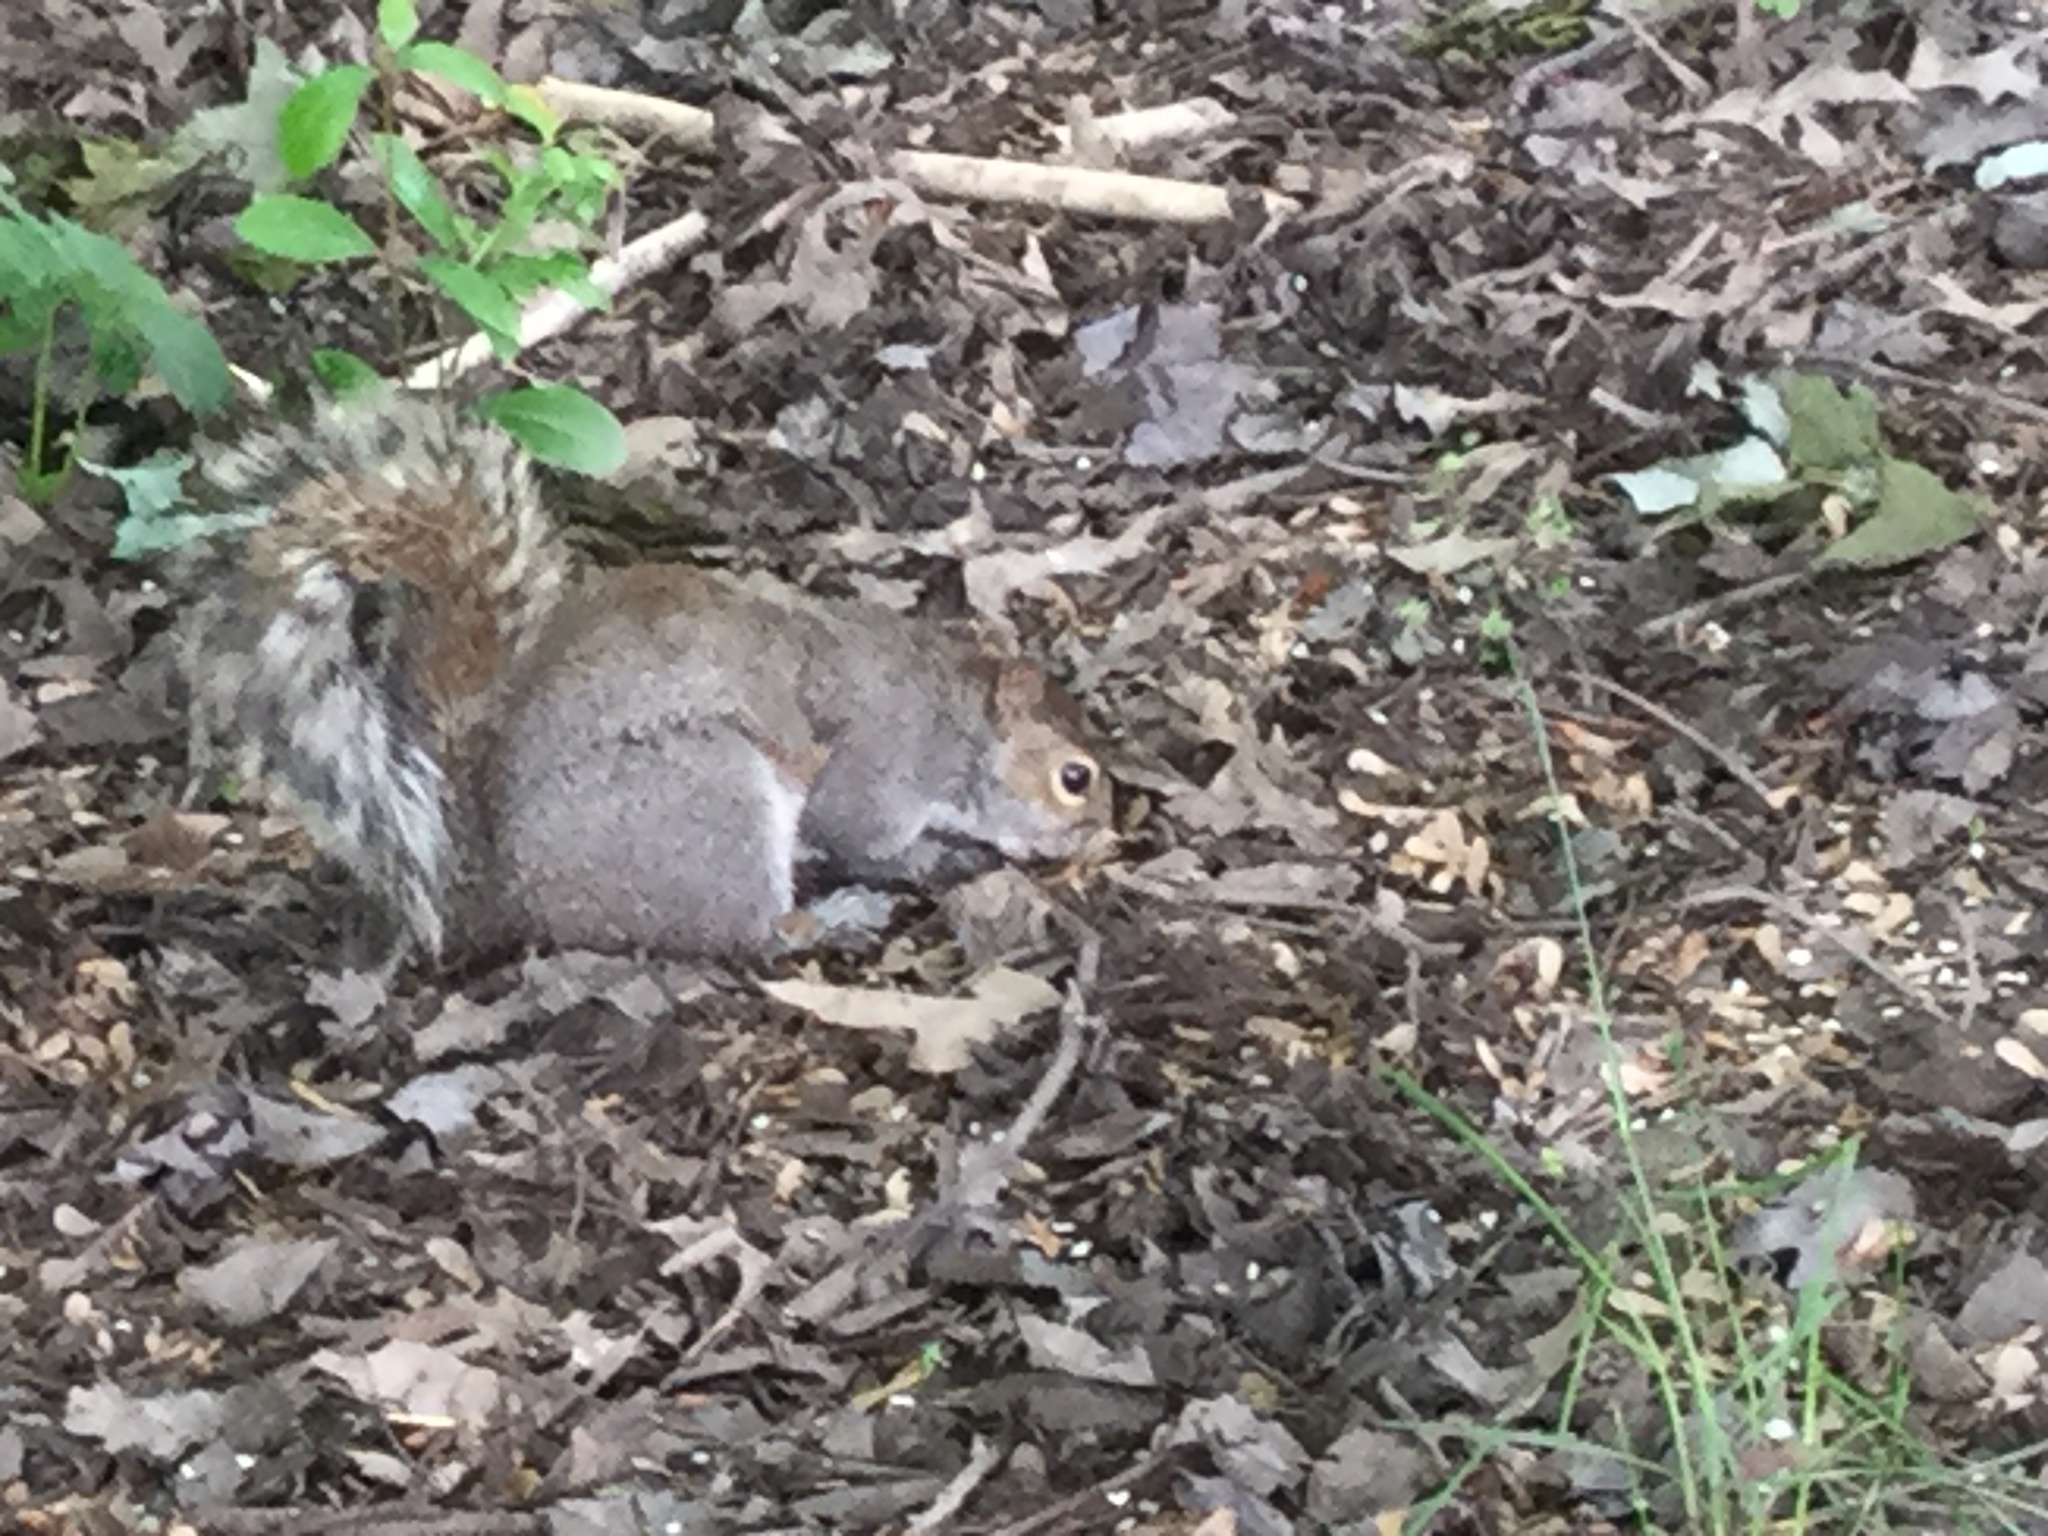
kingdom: Animalia
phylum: Chordata
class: Mammalia
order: Rodentia
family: Sciuridae
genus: Sciurus
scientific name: Sciurus carolinensis
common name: Eastern gray squirrel
